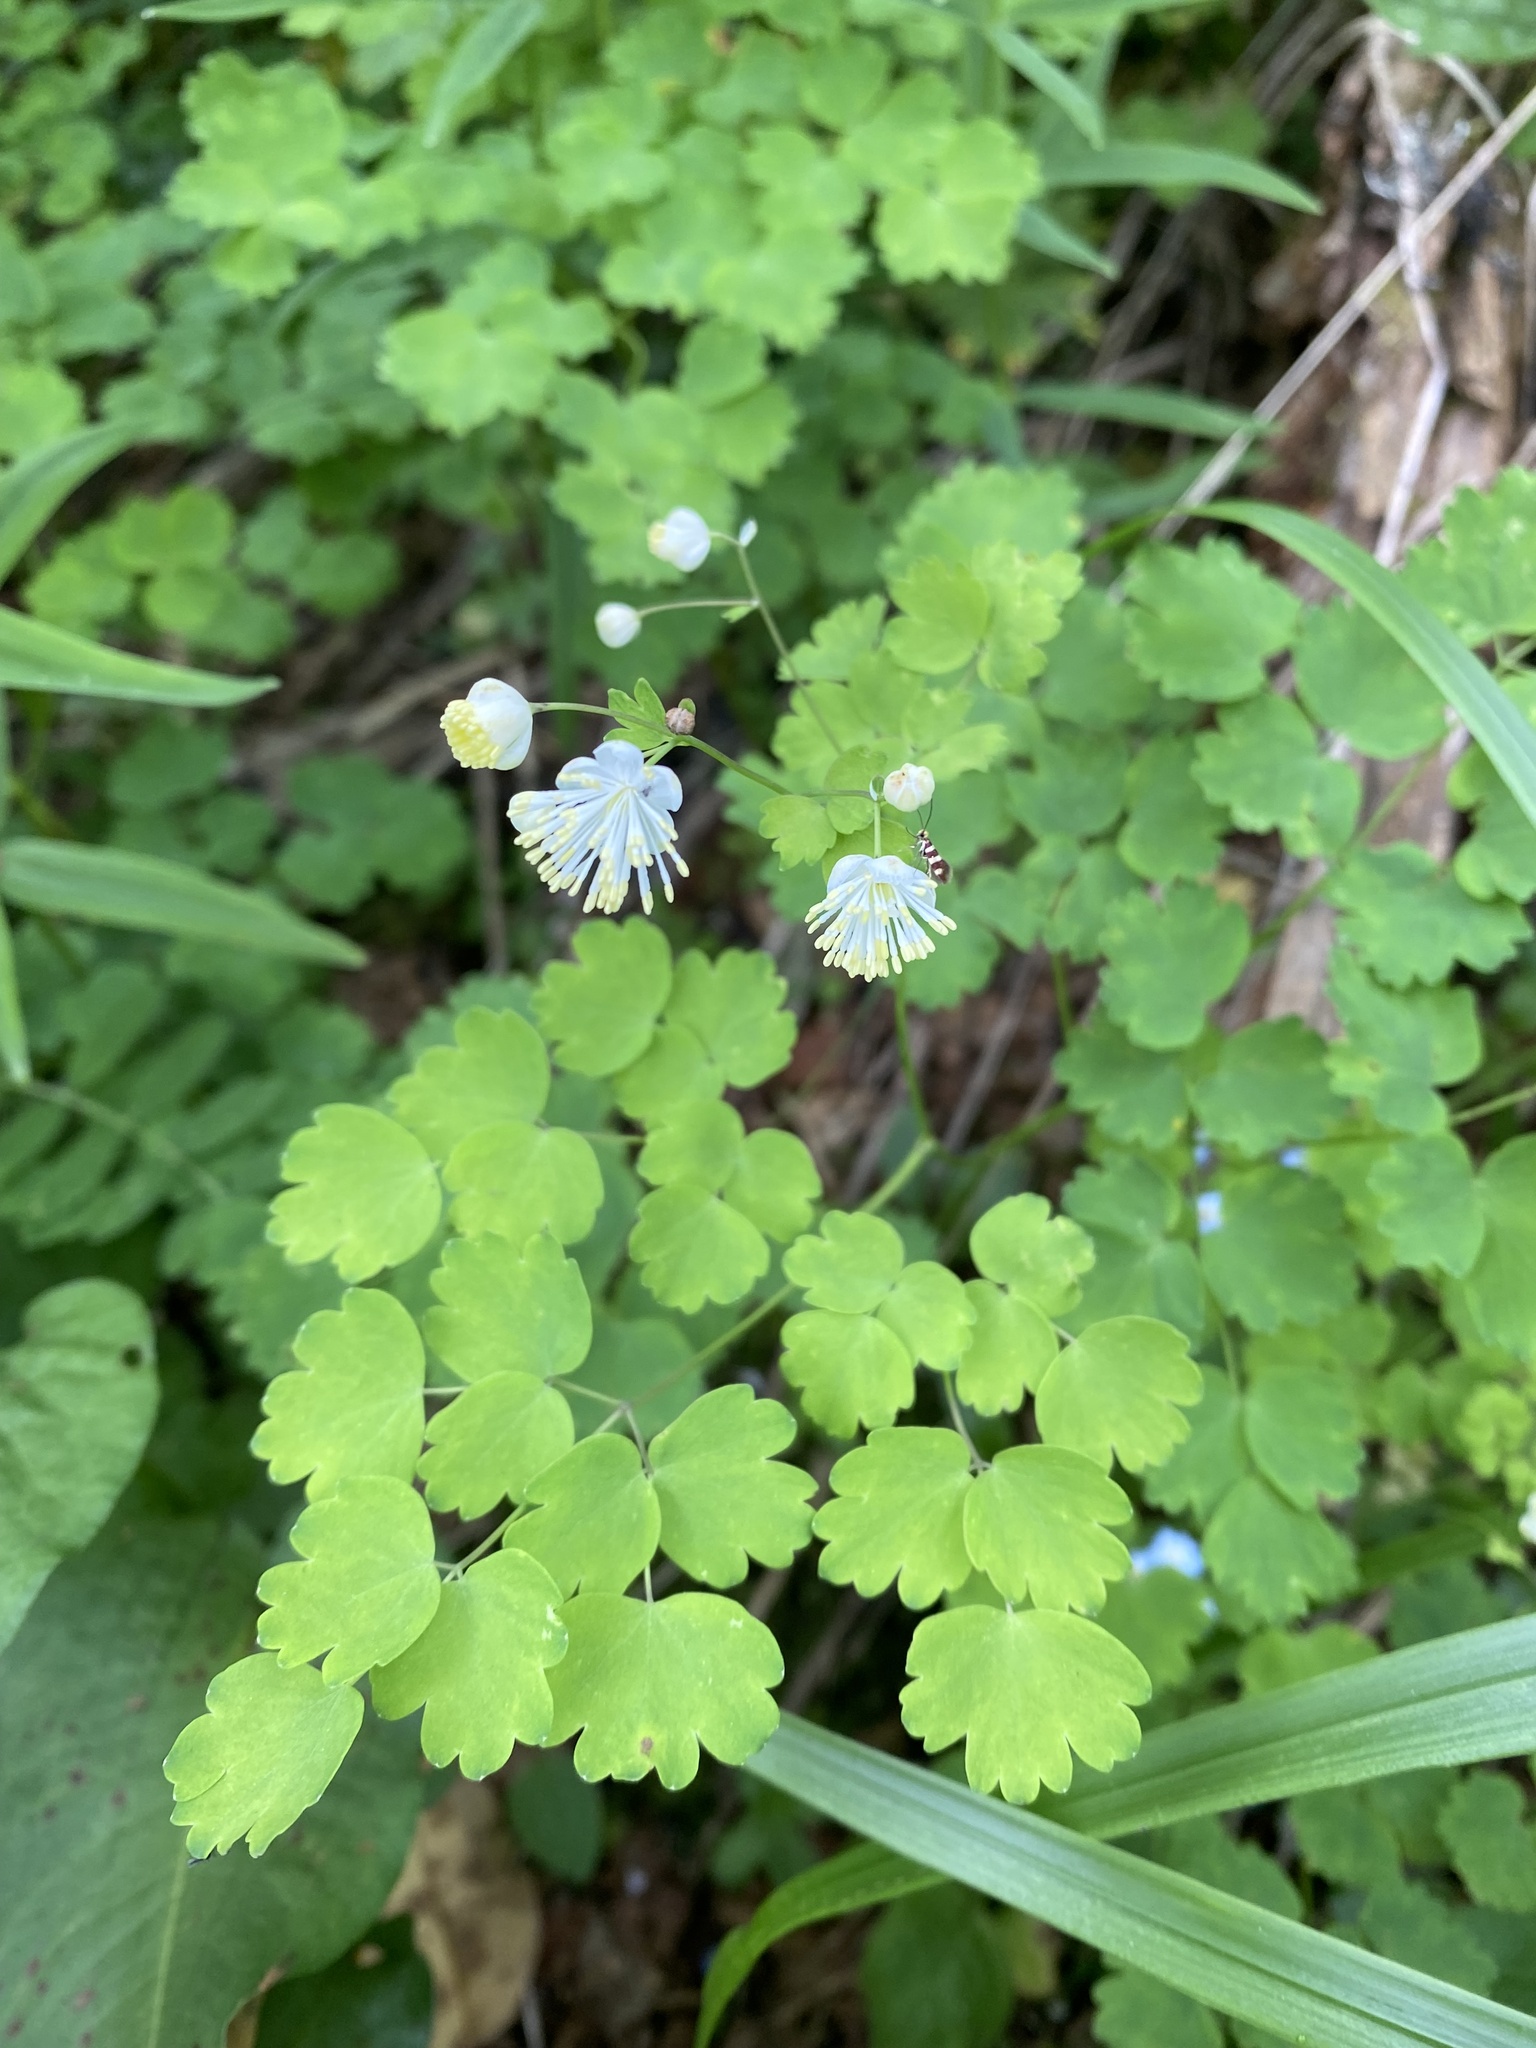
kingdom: Plantae
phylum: Tracheophyta
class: Magnoliopsida
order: Ranunculales
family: Ranunculaceae
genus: Thalictrum
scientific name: Thalictrum aquilegiifolium
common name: French meadow-rue
